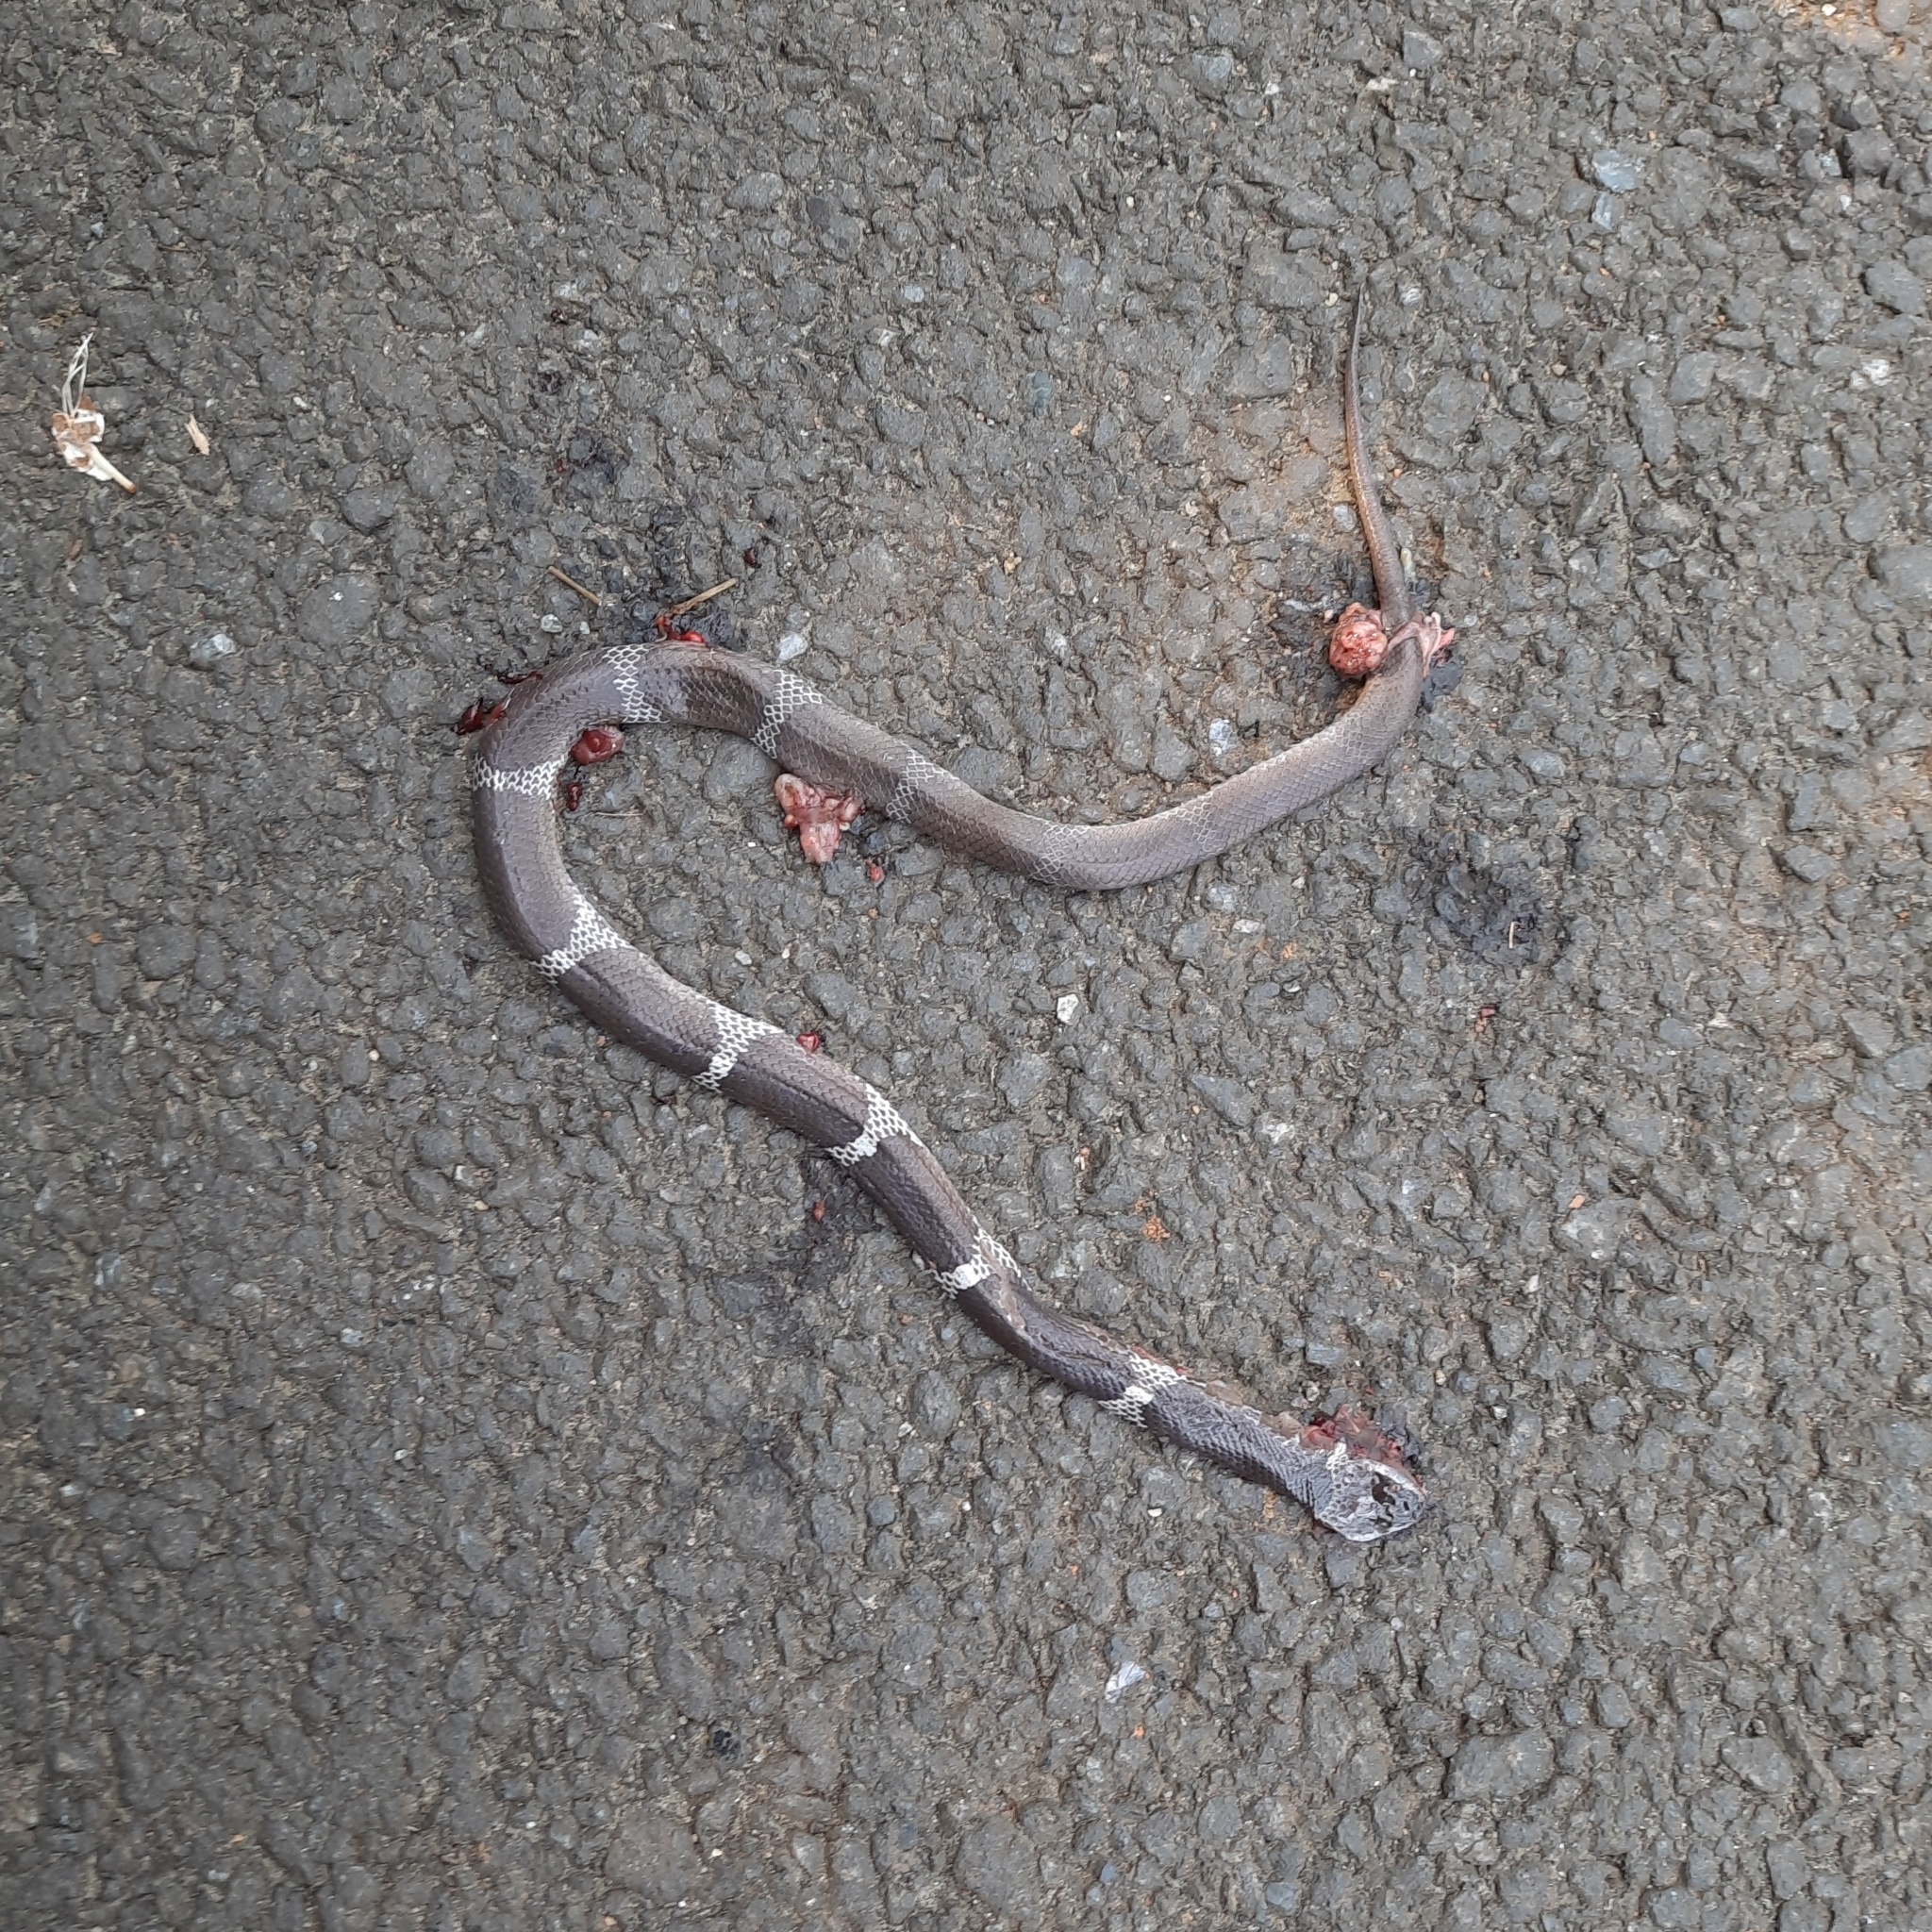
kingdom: Animalia
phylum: Chordata
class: Squamata
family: Colubridae
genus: Lycodon
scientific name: Lycodon aulicus
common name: Common wolf snake
